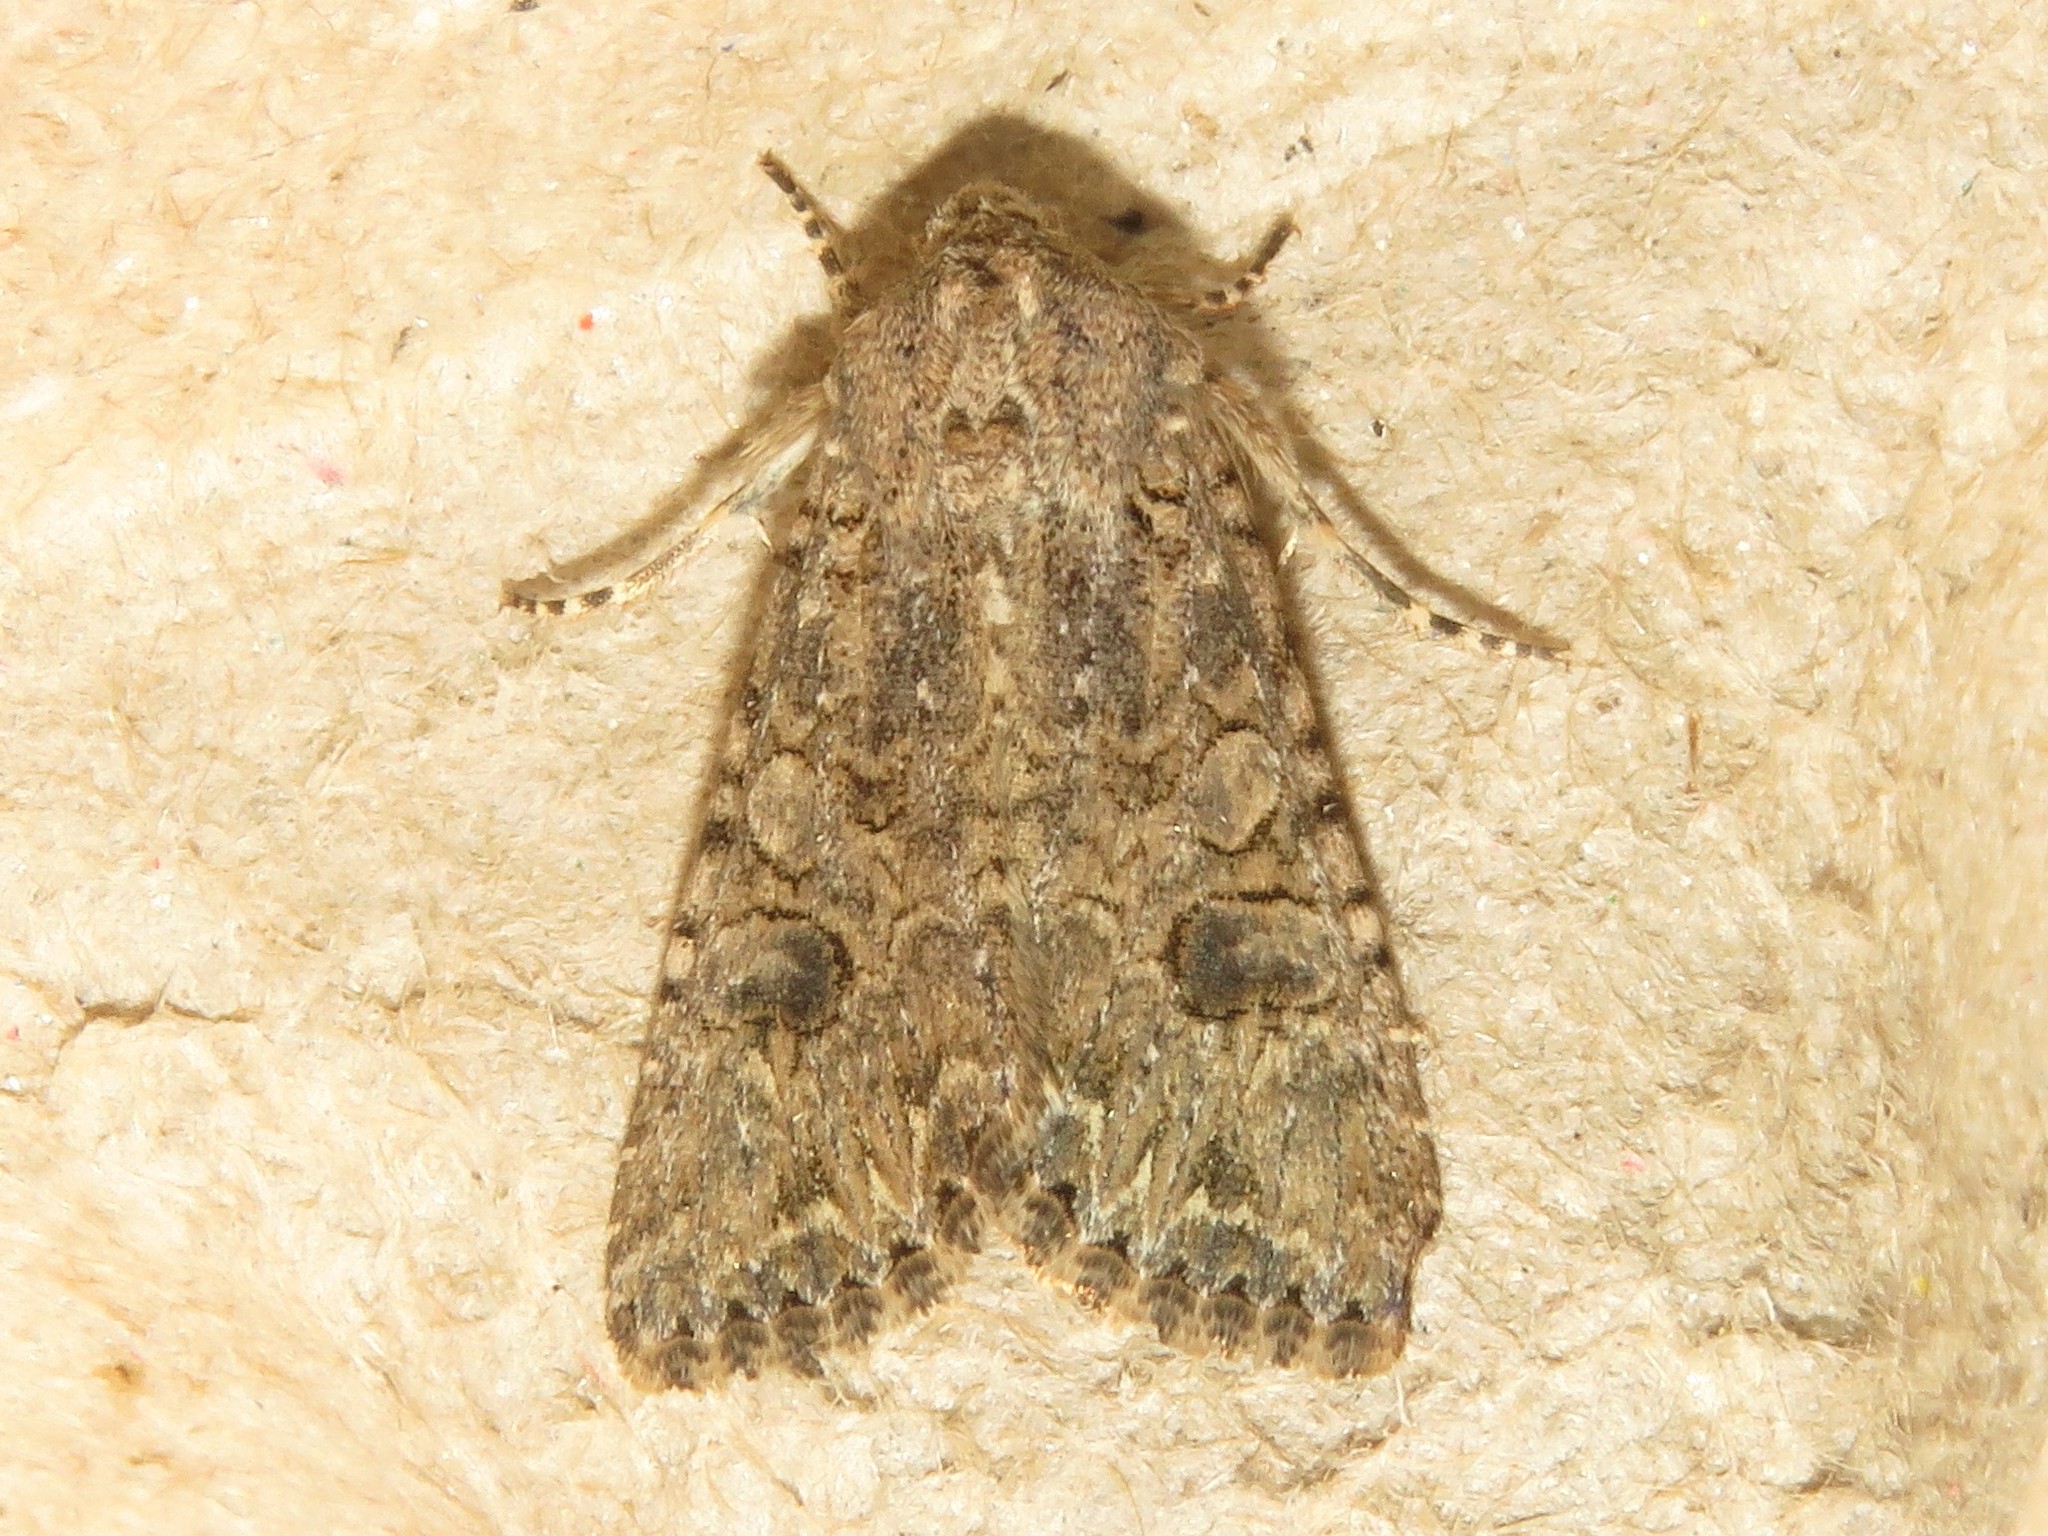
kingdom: Animalia
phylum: Arthropoda
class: Insecta
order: Lepidoptera
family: Noctuidae
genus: Anarta
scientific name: Anarta trifolii
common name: Clover cutworm moth
